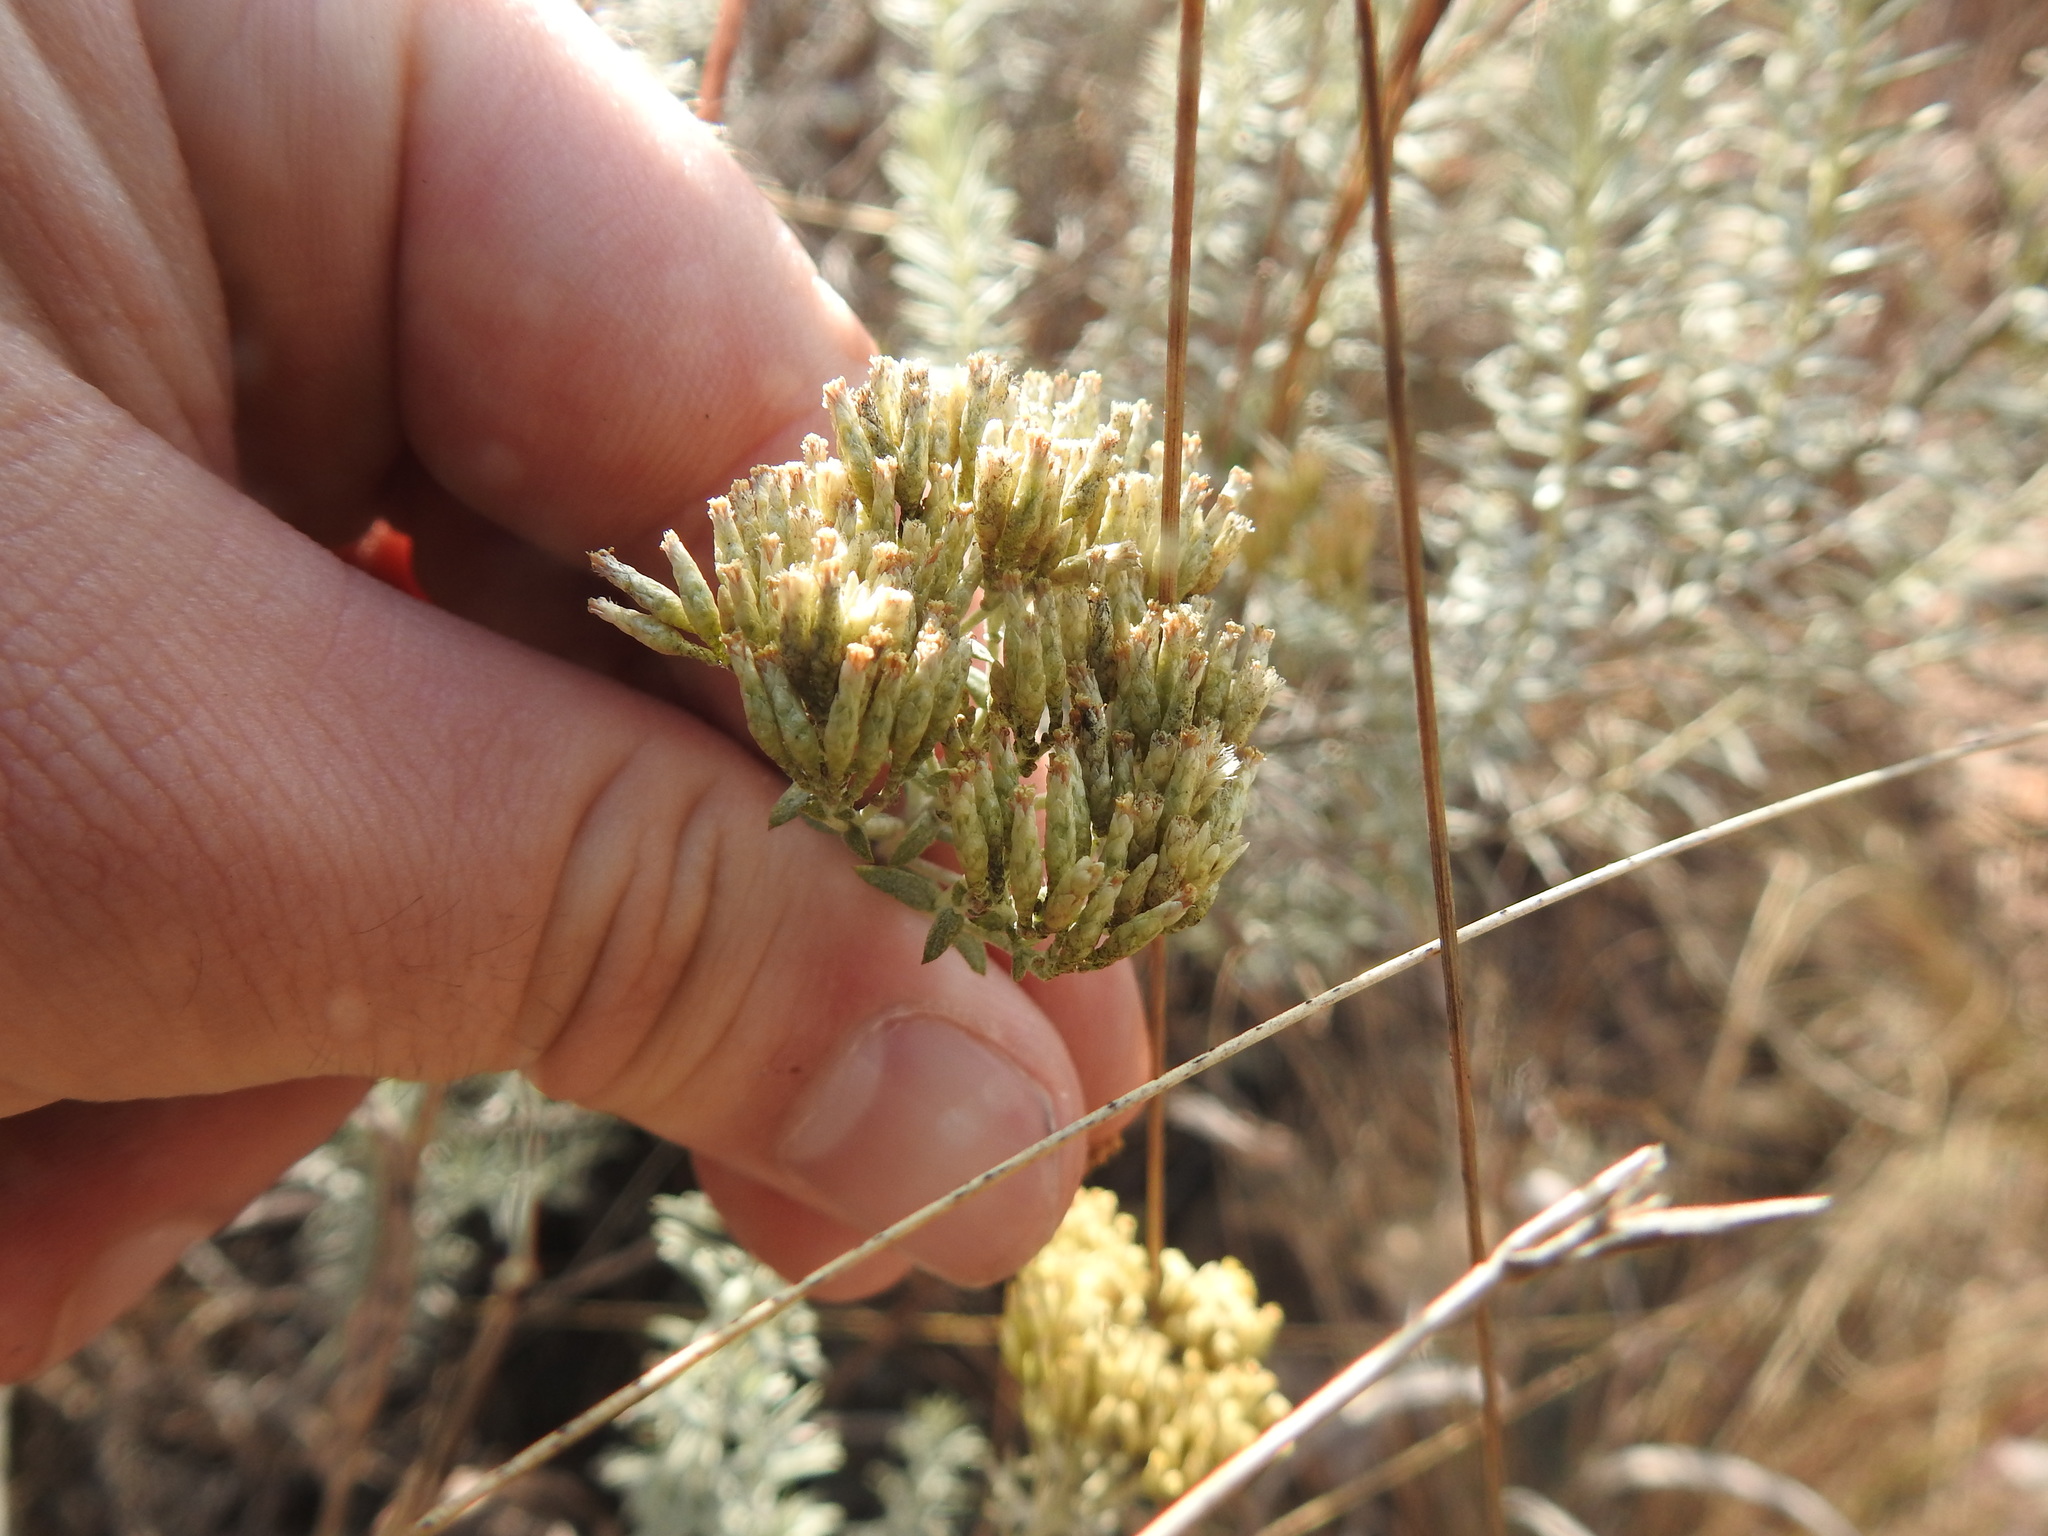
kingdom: Plantae
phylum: Tracheophyta
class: Magnoliopsida
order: Asterales
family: Asteraceae
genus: Helichrysum
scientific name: Helichrysum kraussii
